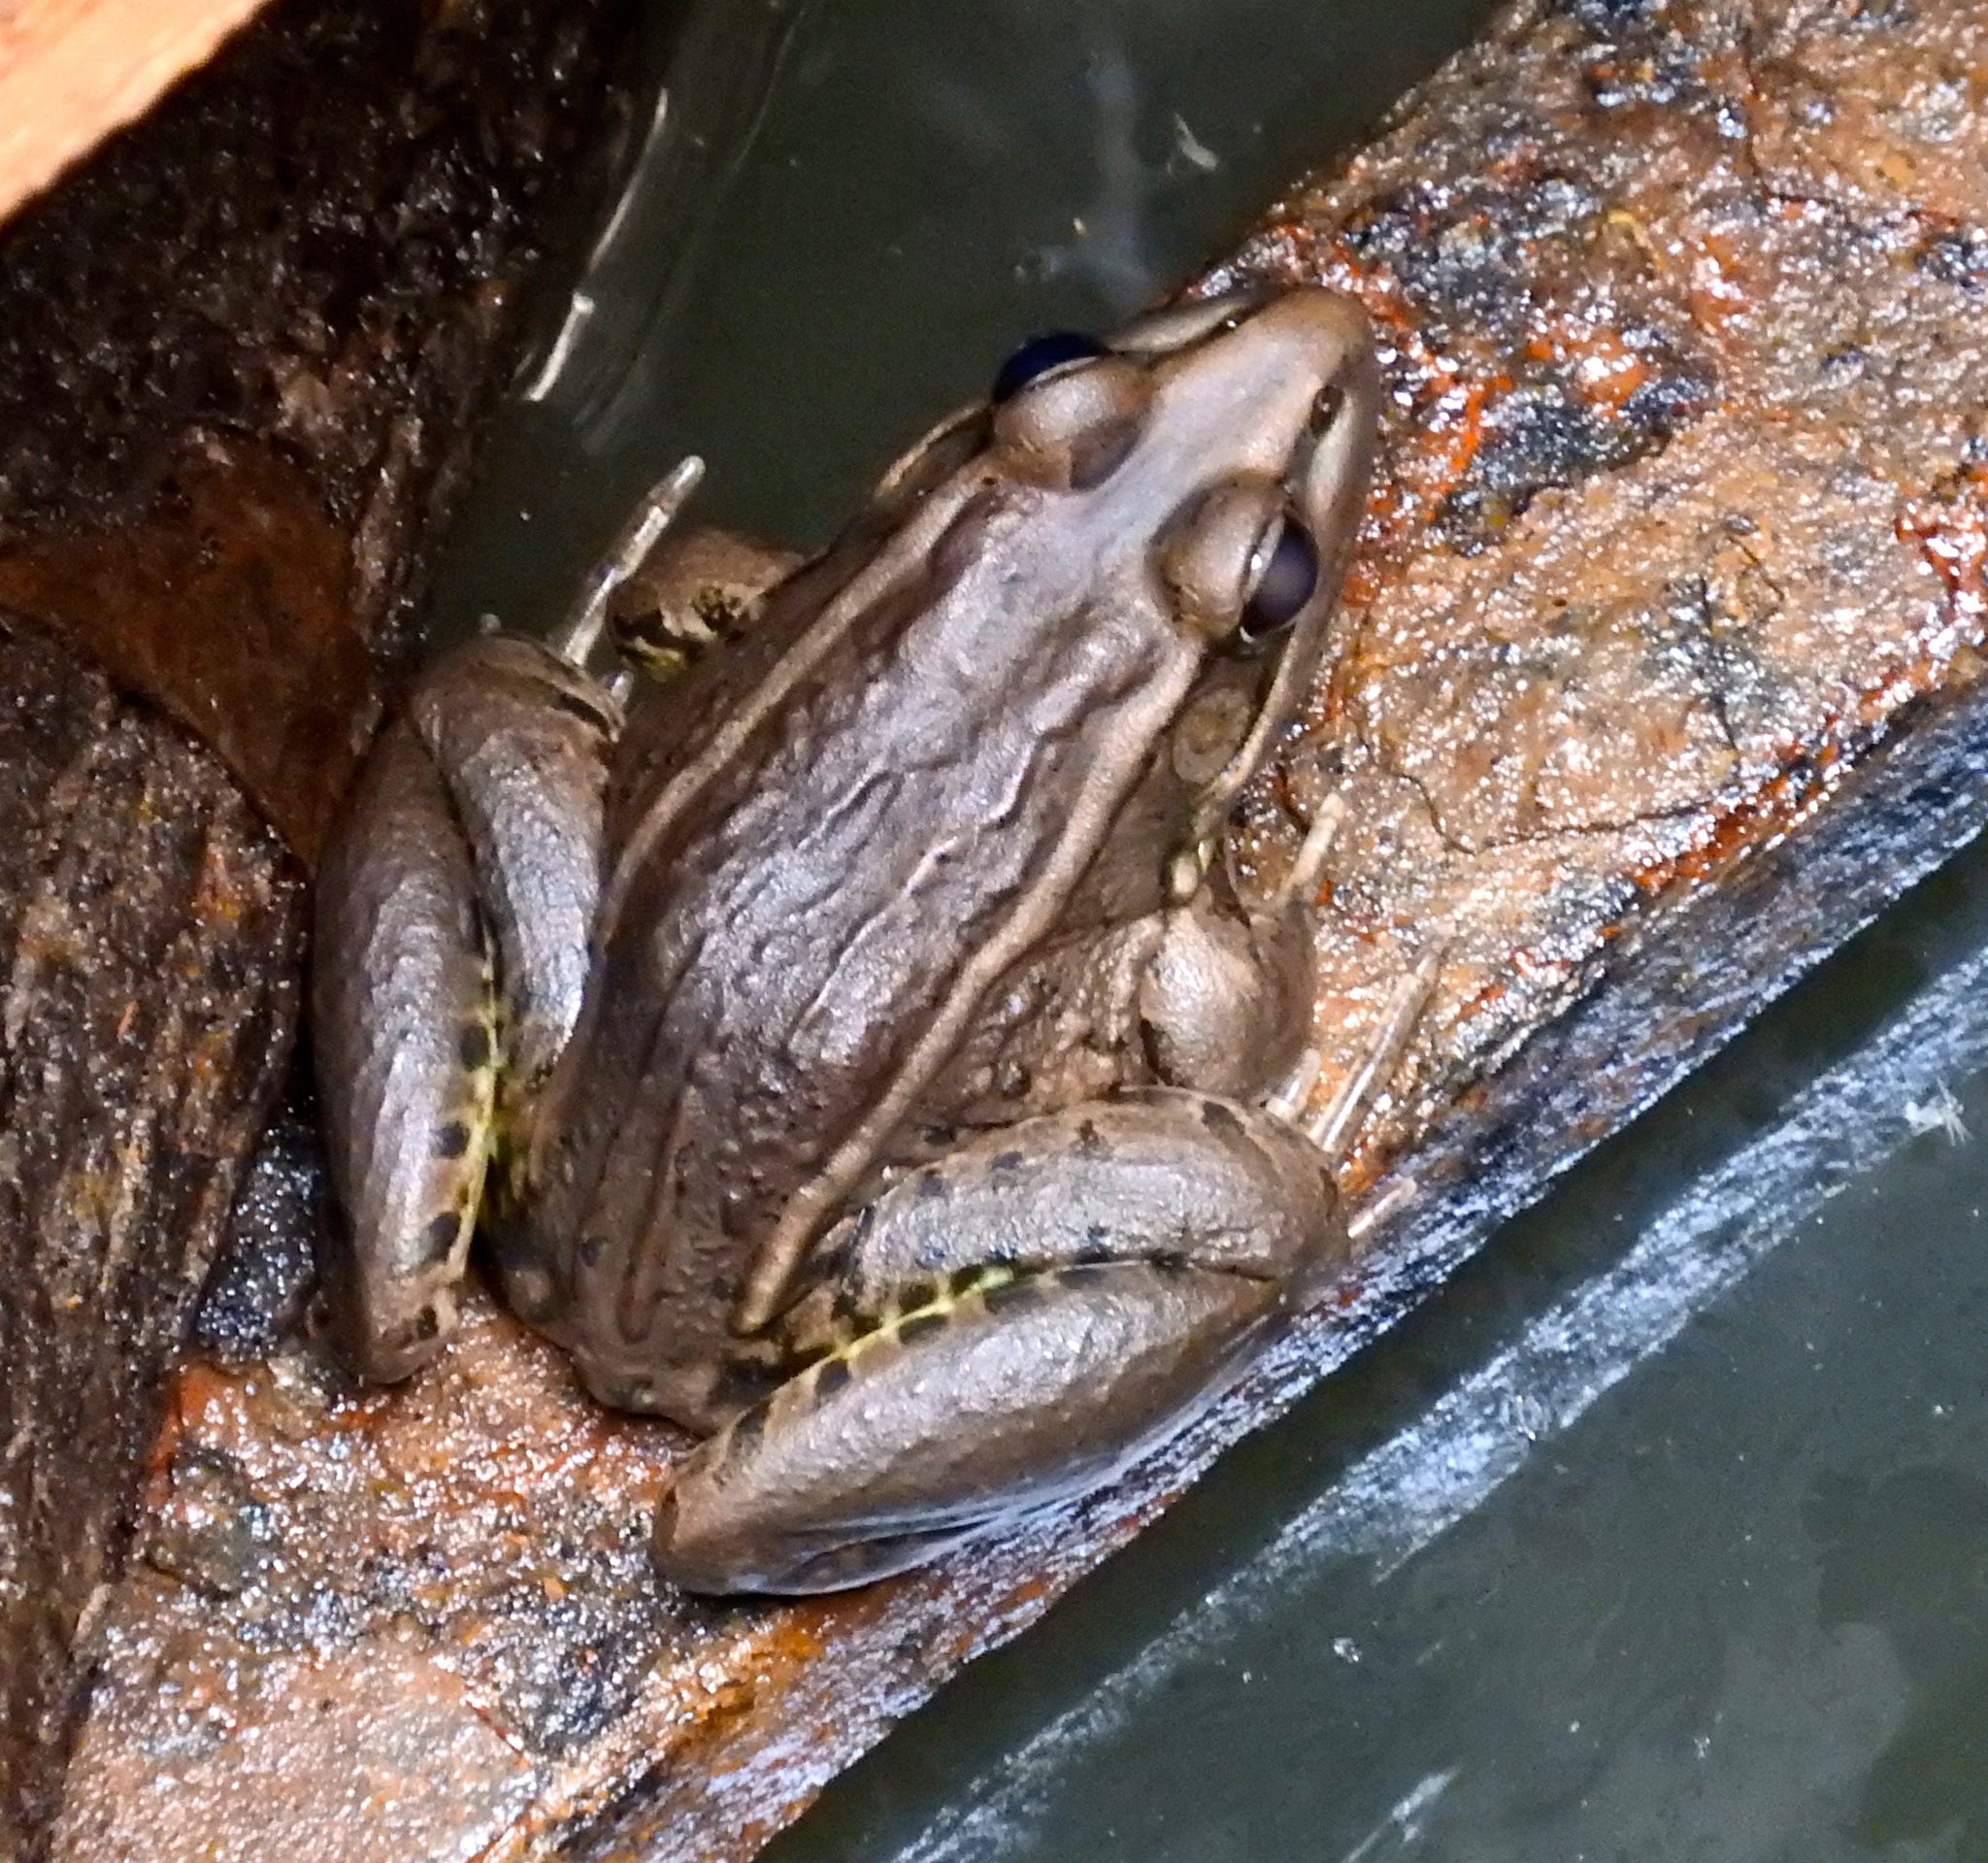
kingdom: Animalia
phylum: Chordata
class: Amphibia
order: Anura
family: Ranidae
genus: Lithobates
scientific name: Lithobates
